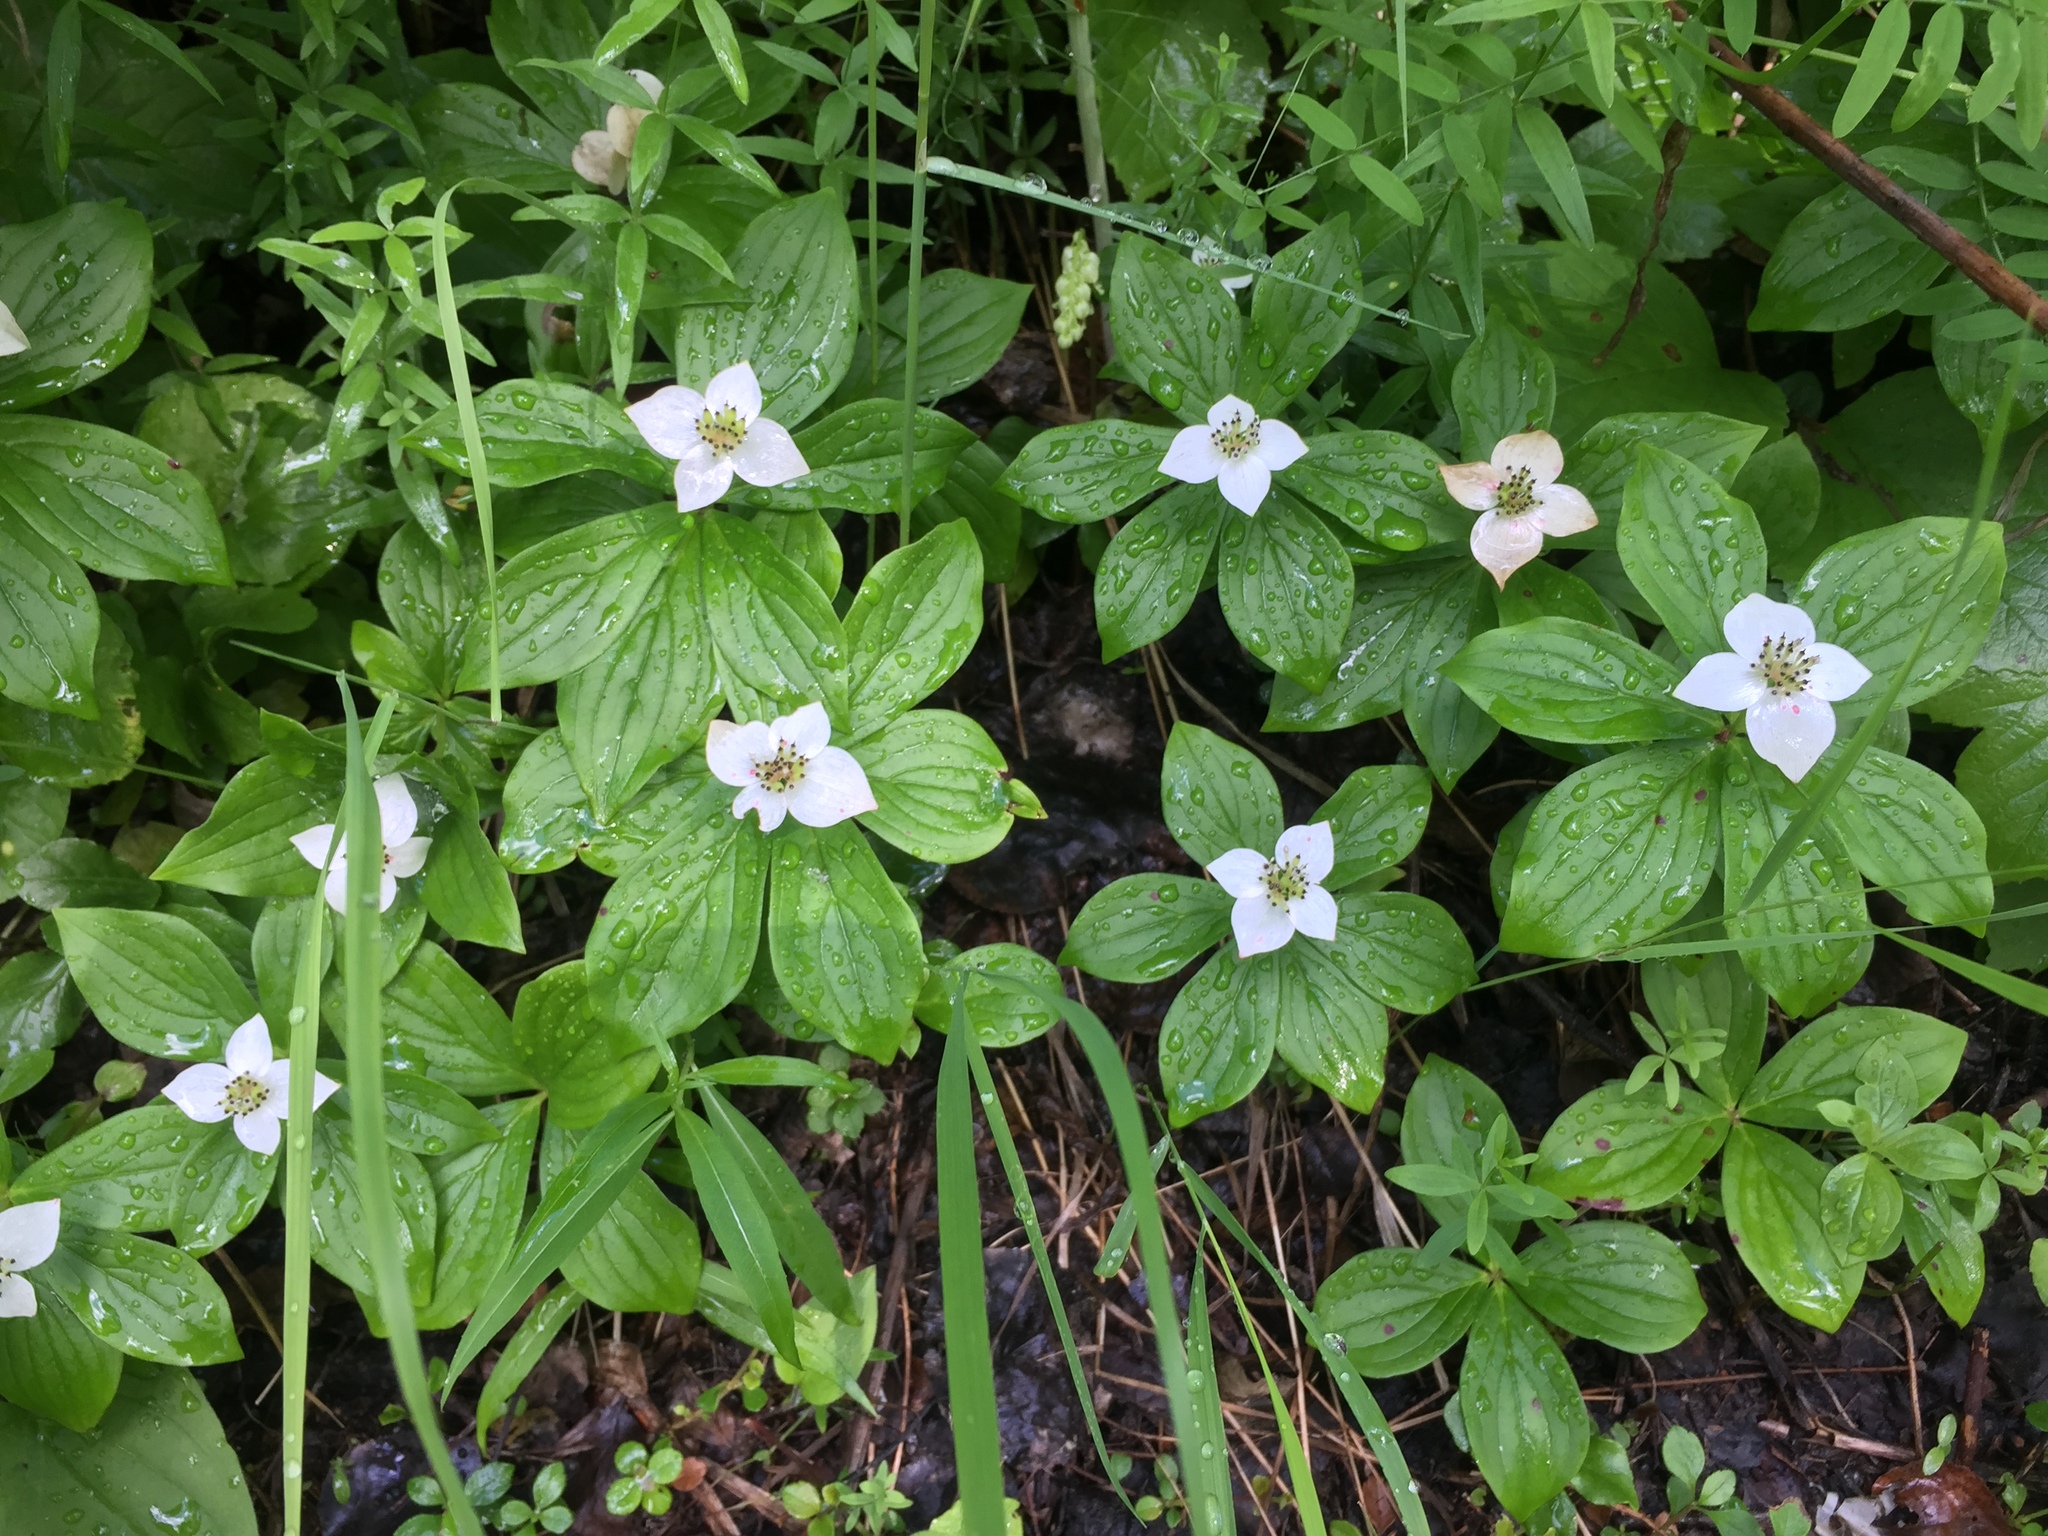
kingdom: Plantae
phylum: Tracheophyta
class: Magnoliopsida
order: Cornales
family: Cornaceae
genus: Cornus
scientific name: Cornus canadensis
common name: Creeping dogwood
